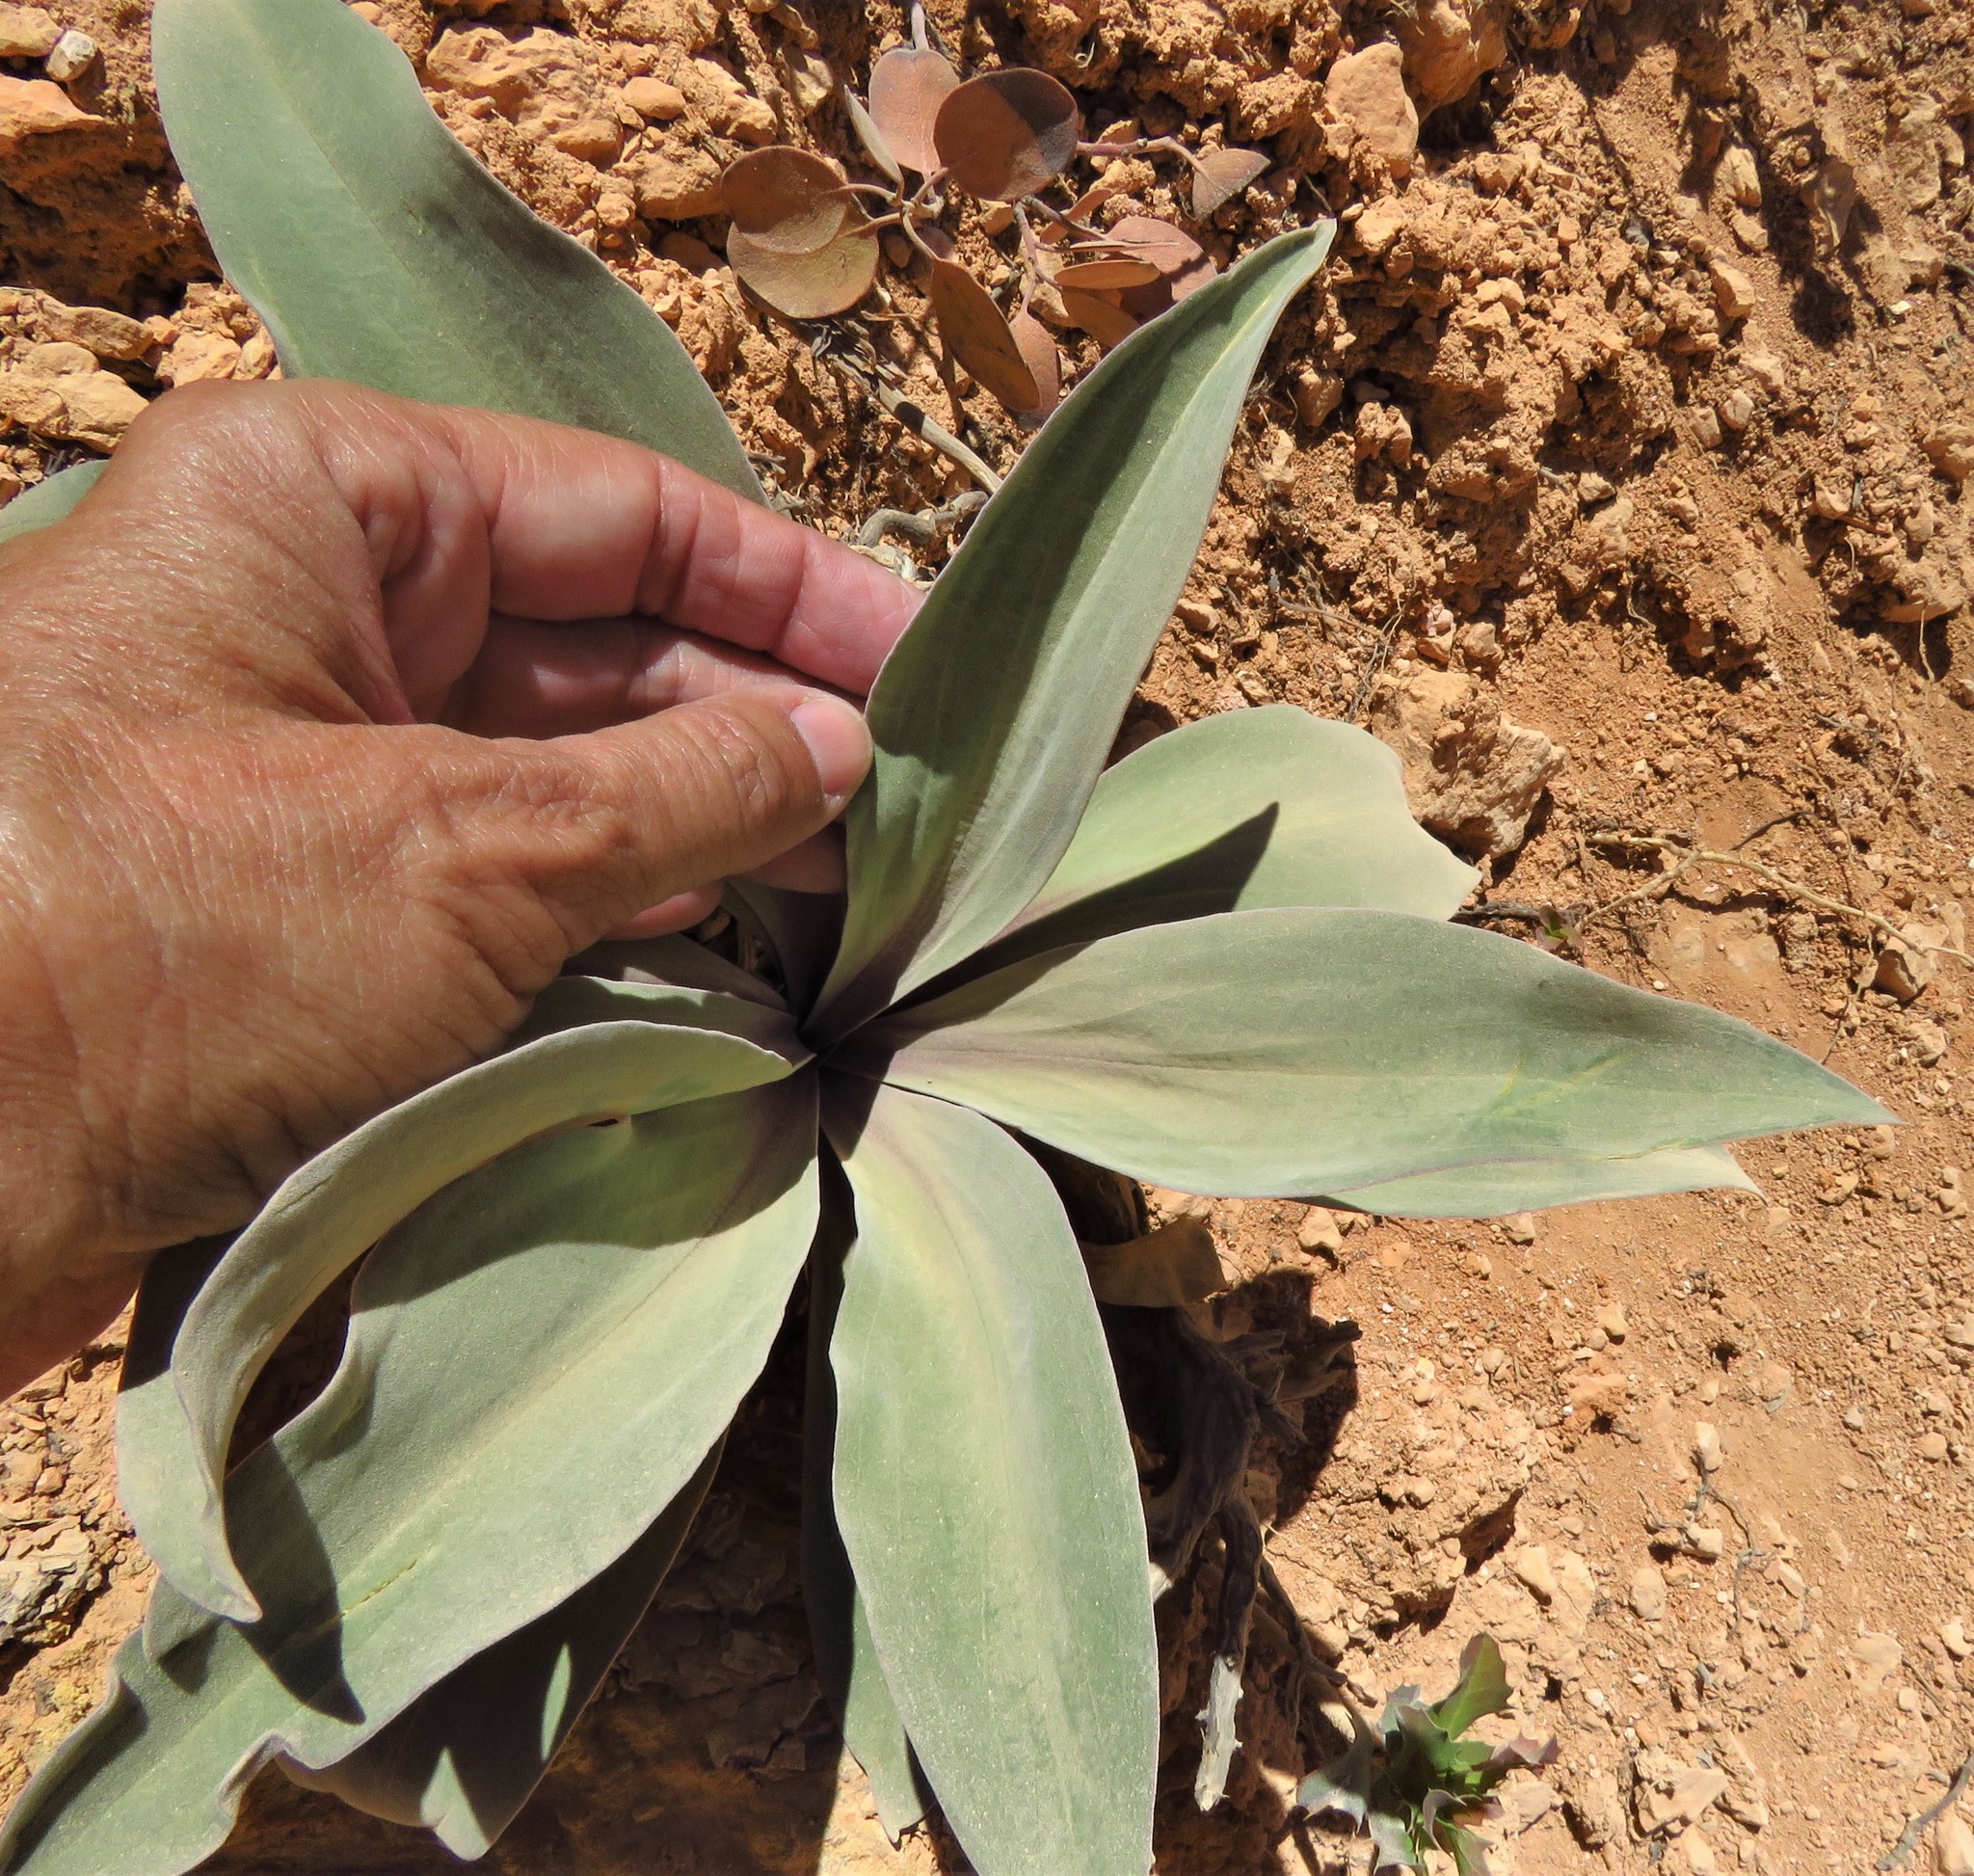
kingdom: Plantae
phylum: Tracheophyta
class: Magnoliopsida
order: Gentianales
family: Gentianaceae
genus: Frasera
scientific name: Frasera speciosa
